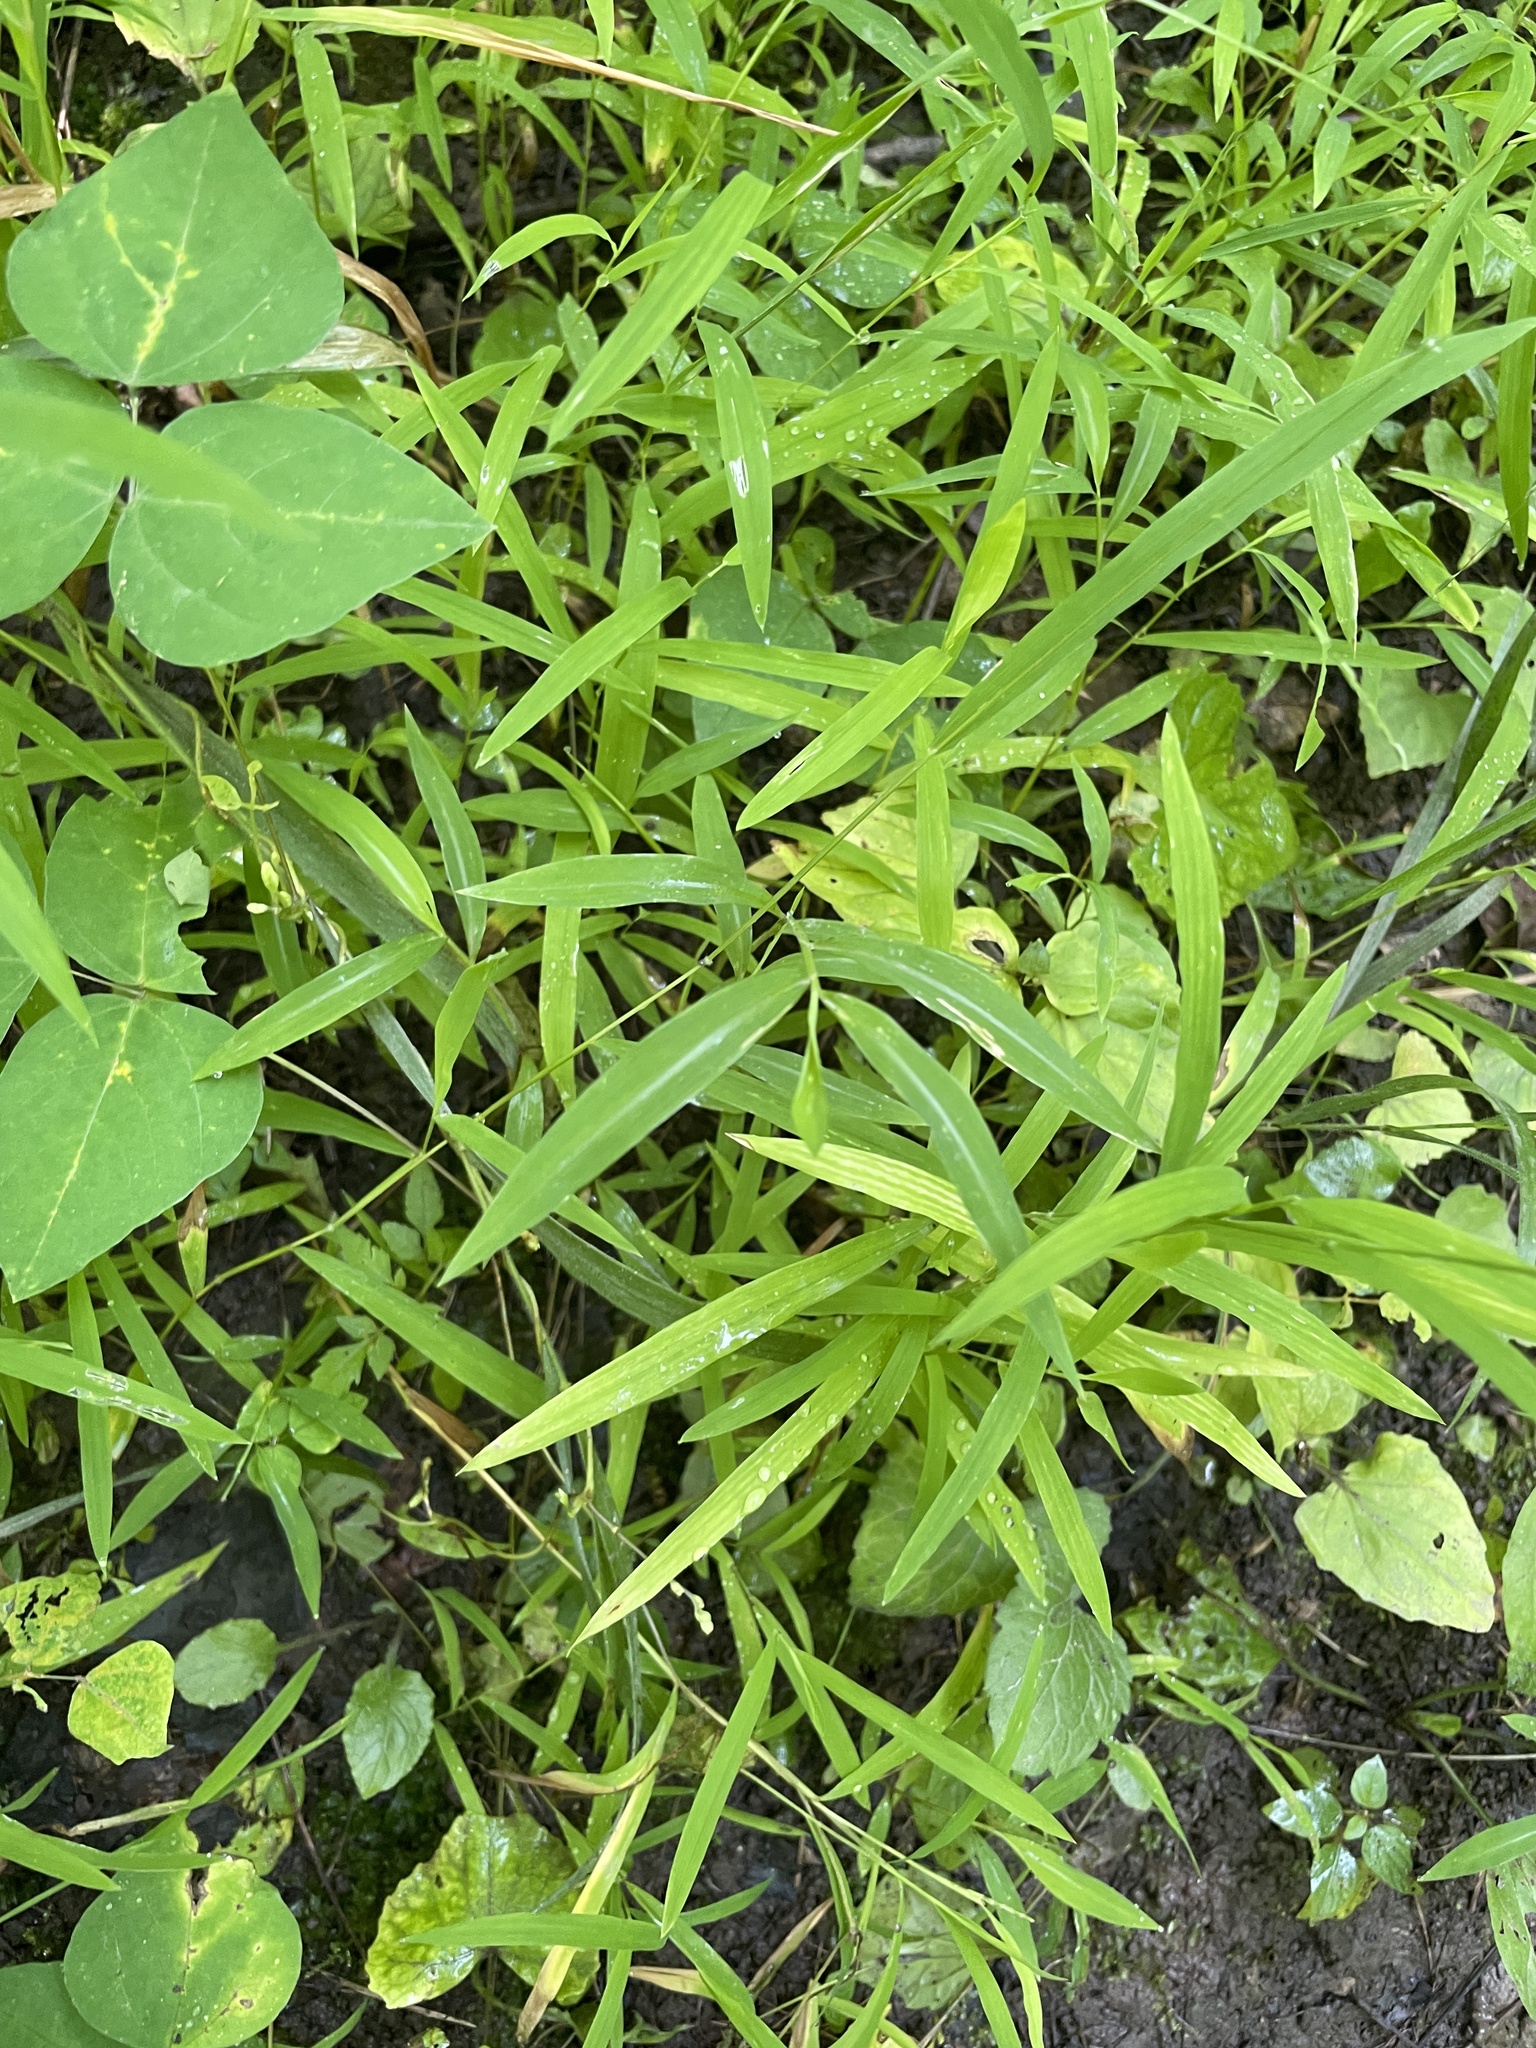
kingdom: Plantae
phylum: Tracheophyta
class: Liliopsida
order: Poales
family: Poaceae
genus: Microstegium
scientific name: Microstegium vimineum
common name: Japanese stiltgrass
